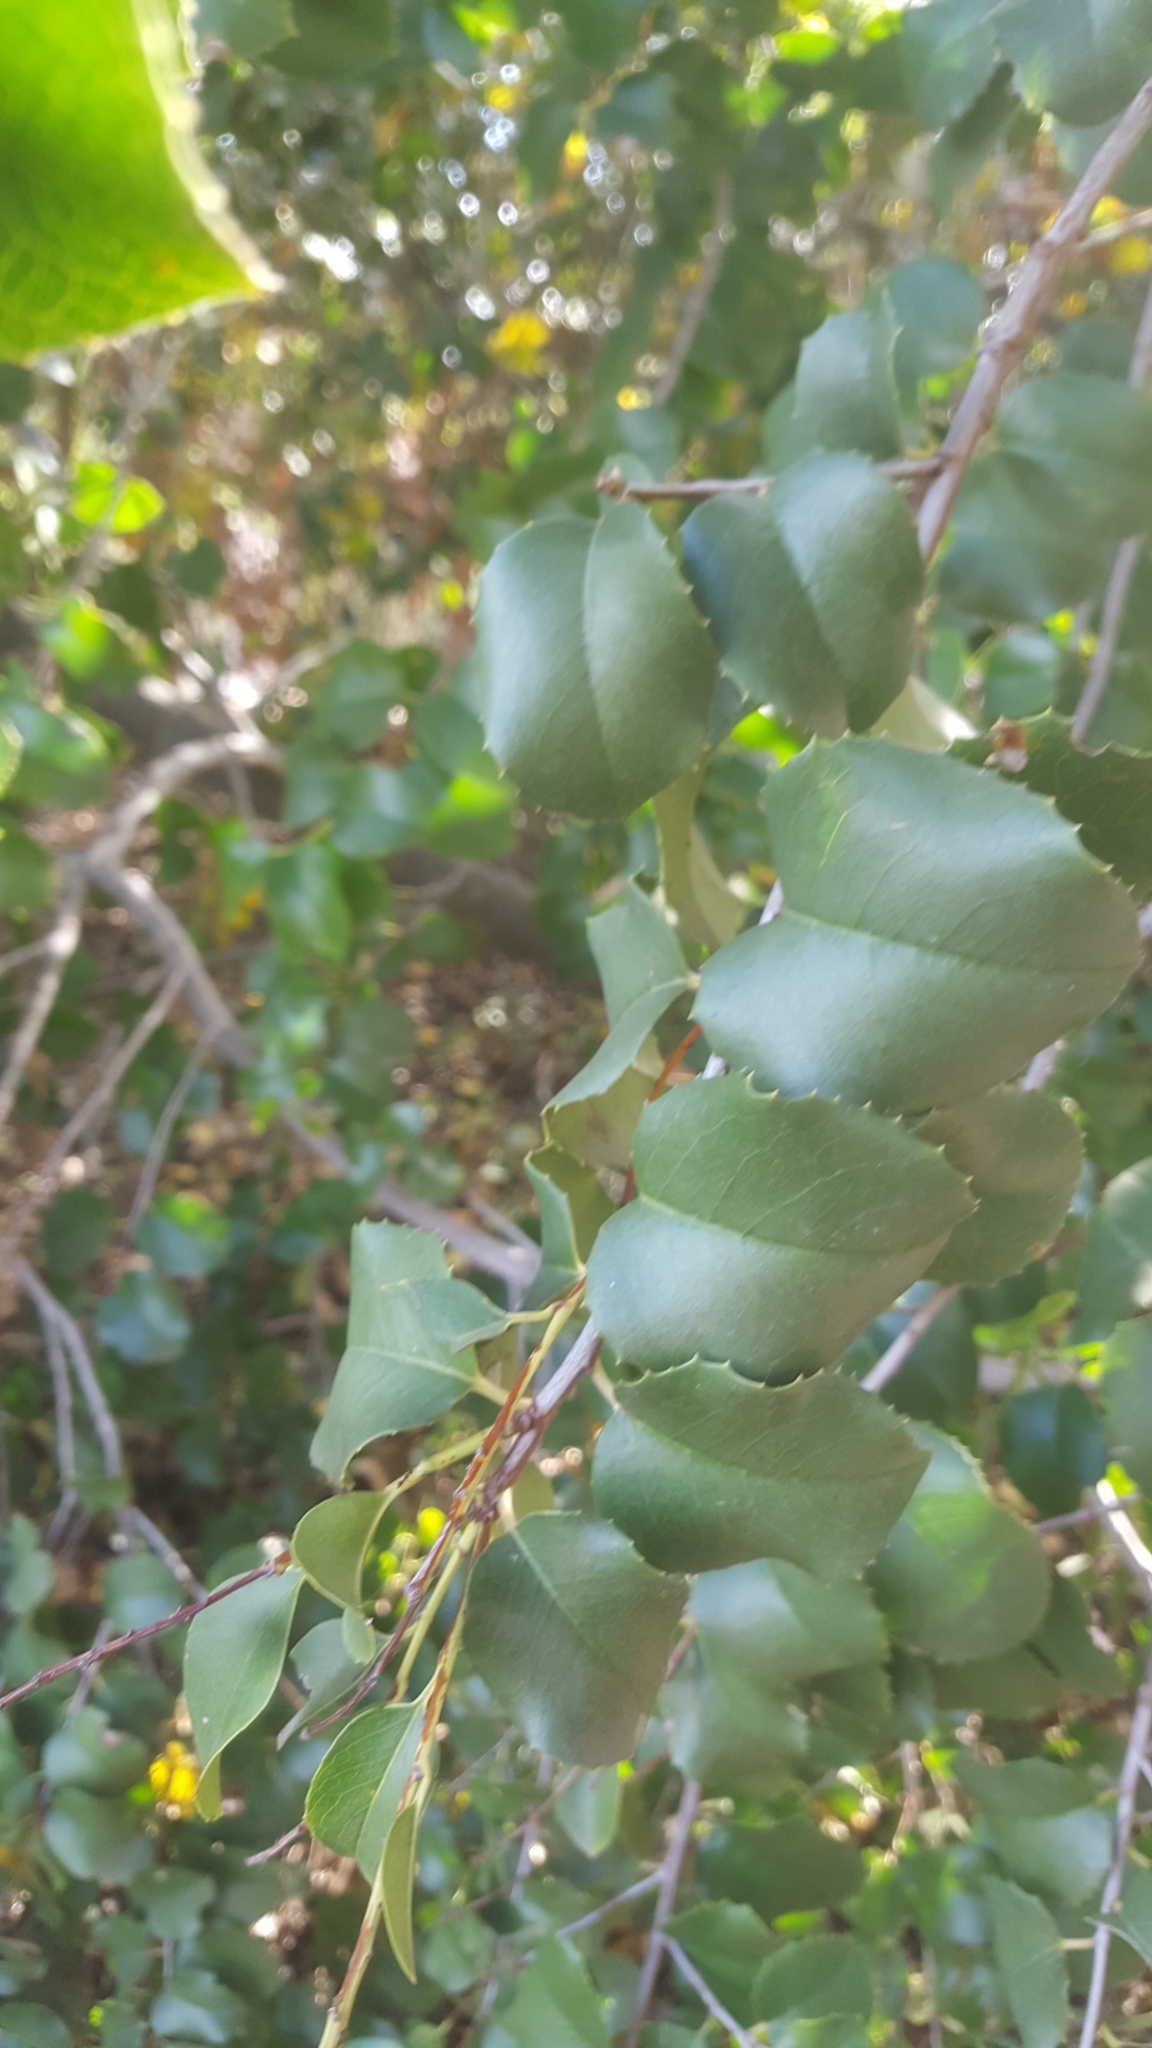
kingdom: Plantae
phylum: Tracheophyta
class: Magnoliopsida
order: Rosales
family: Rosaceae
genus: Prunus
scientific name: Prunus ilicifolia
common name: Hollyleaf cherry
